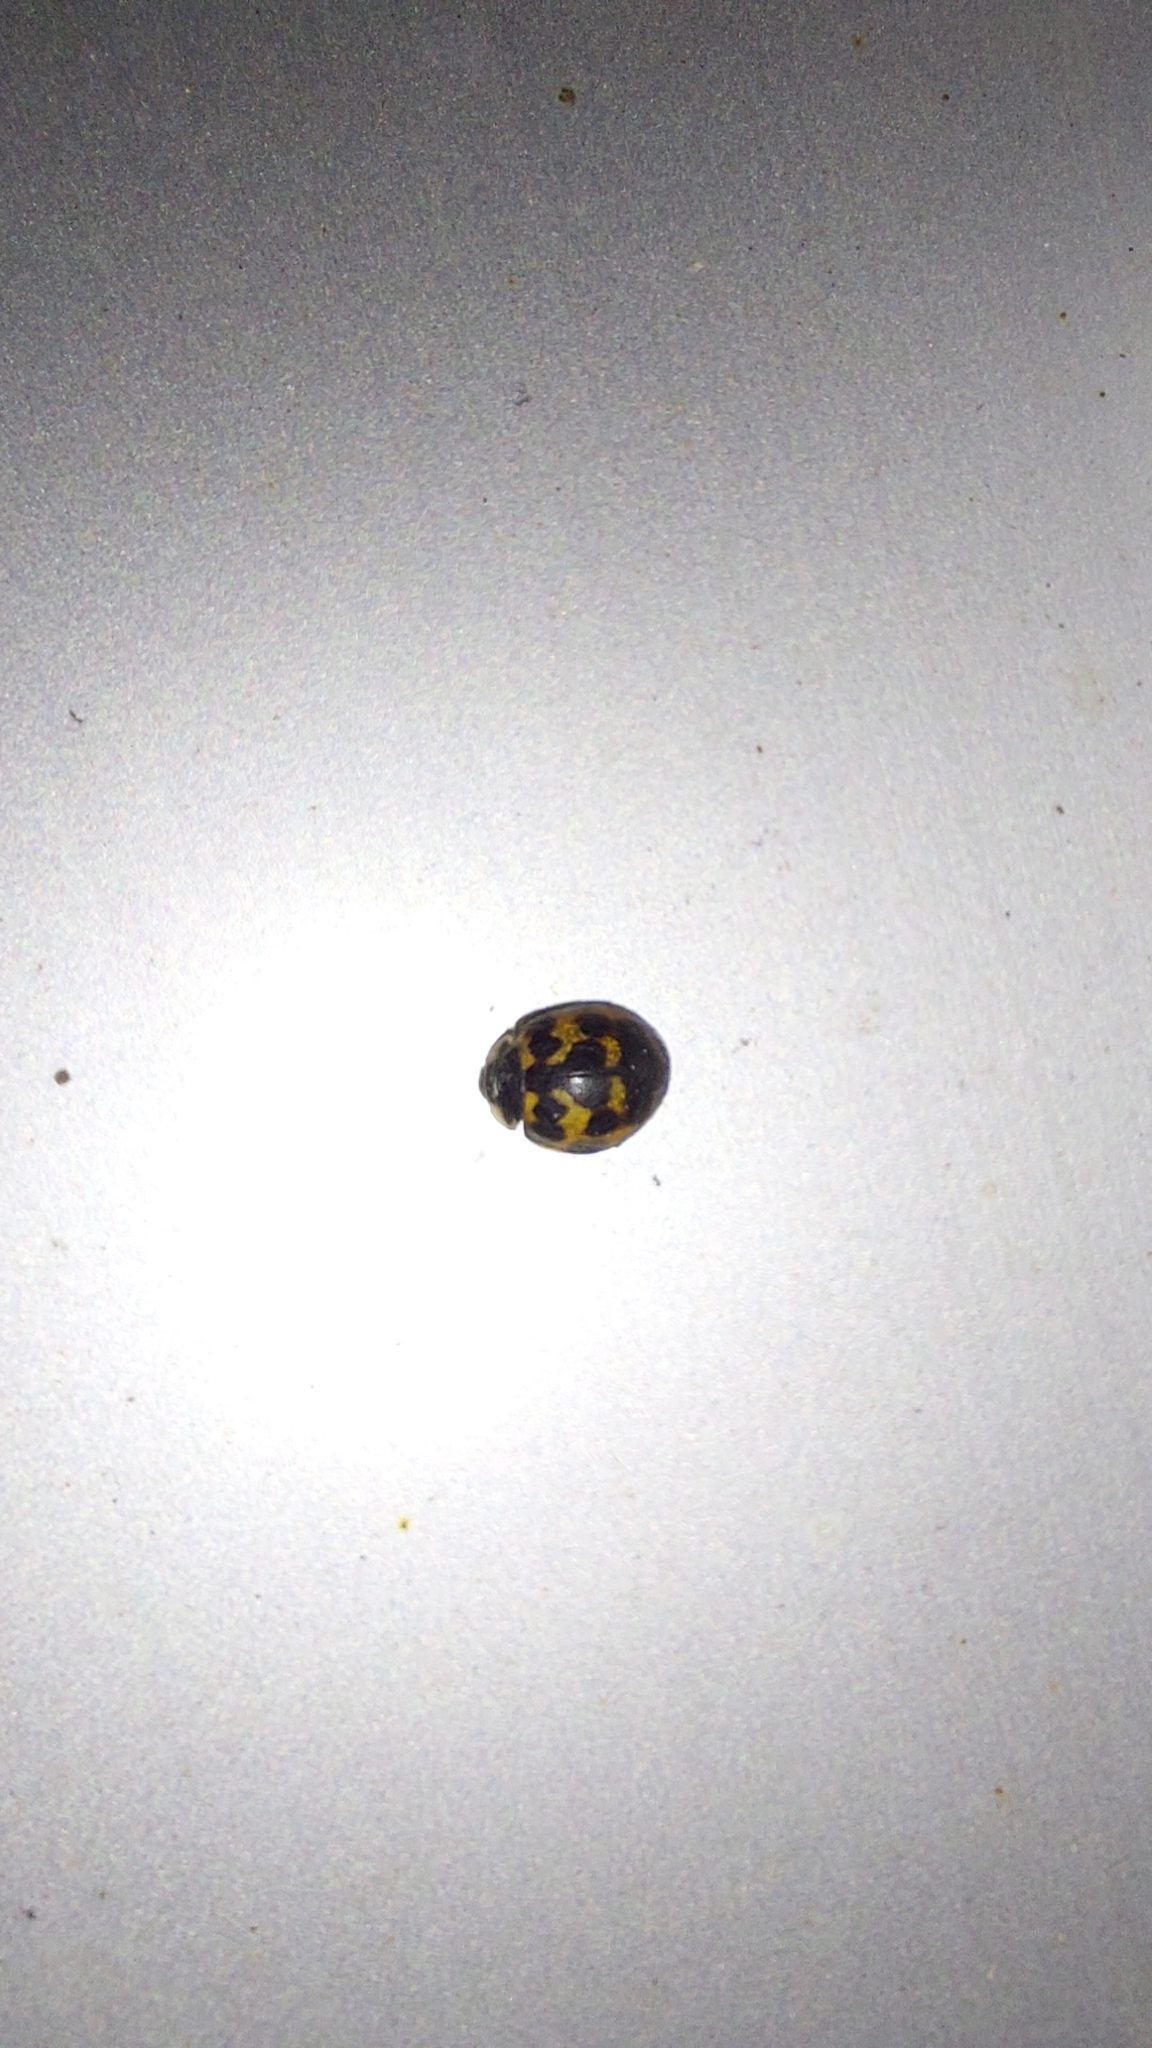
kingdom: Animalia
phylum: Arthropoda
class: Insecta
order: Coleoptera
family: Coccinellidae
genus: Harmonia
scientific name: Harmonia axyridis
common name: Harlequin ladybird
